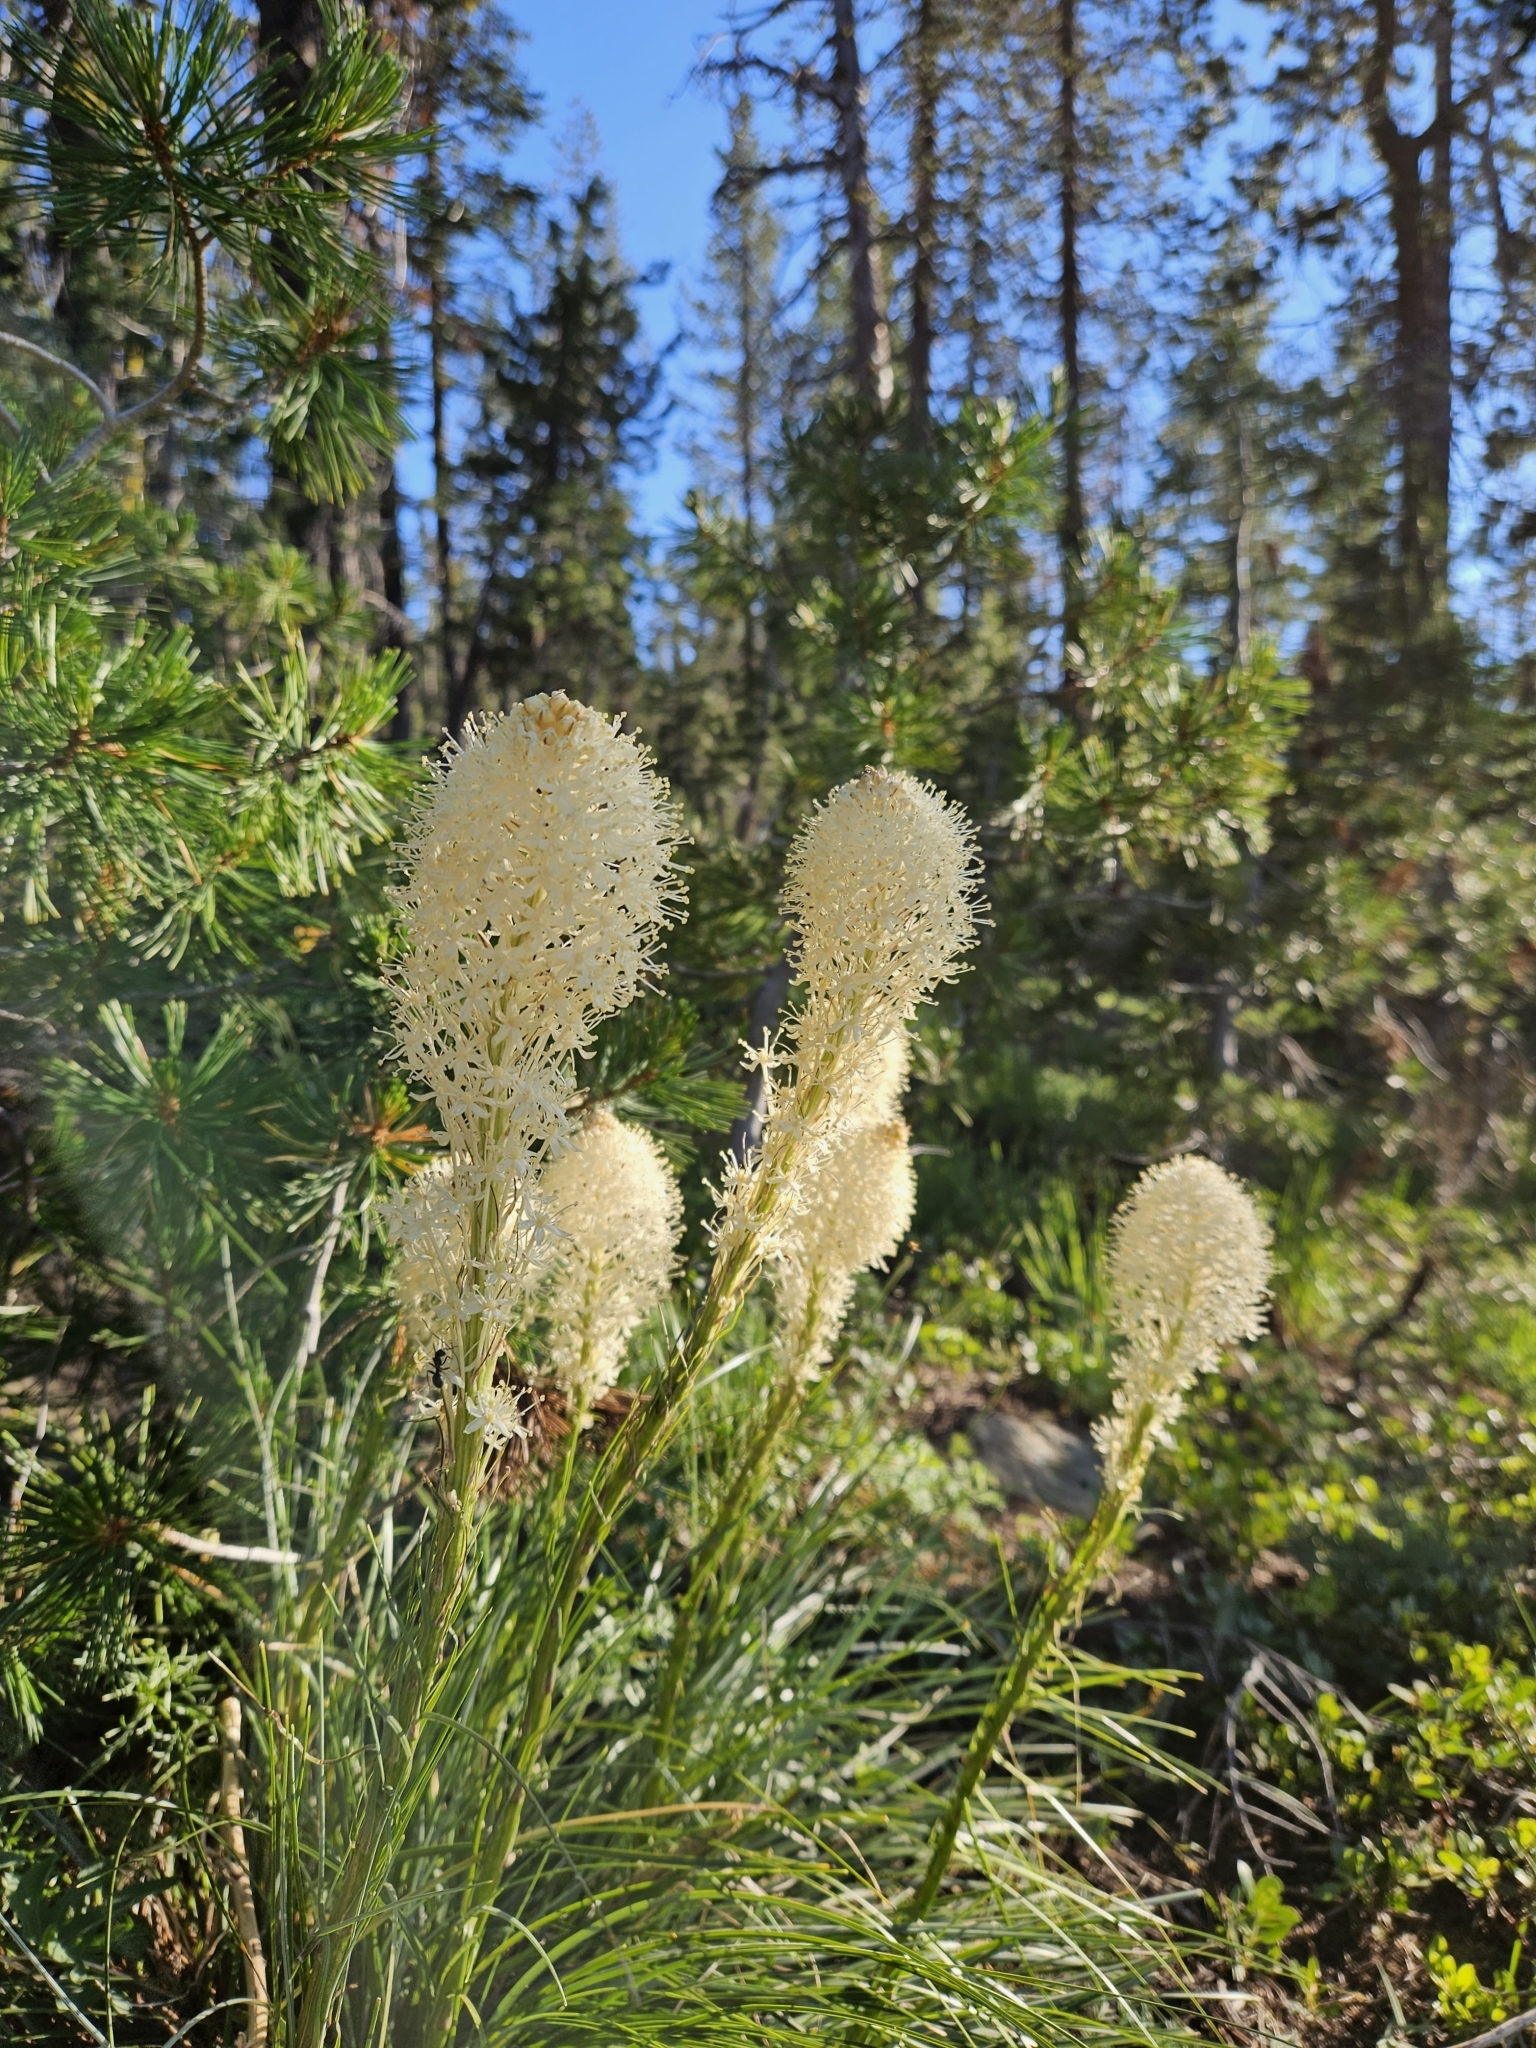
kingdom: Plantae
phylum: Tracheophyta
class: Liliopsida
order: Liliales
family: Melanthiaceae
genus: Xerophyllum
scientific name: Xerophyllum tenax
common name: Bear-grass
